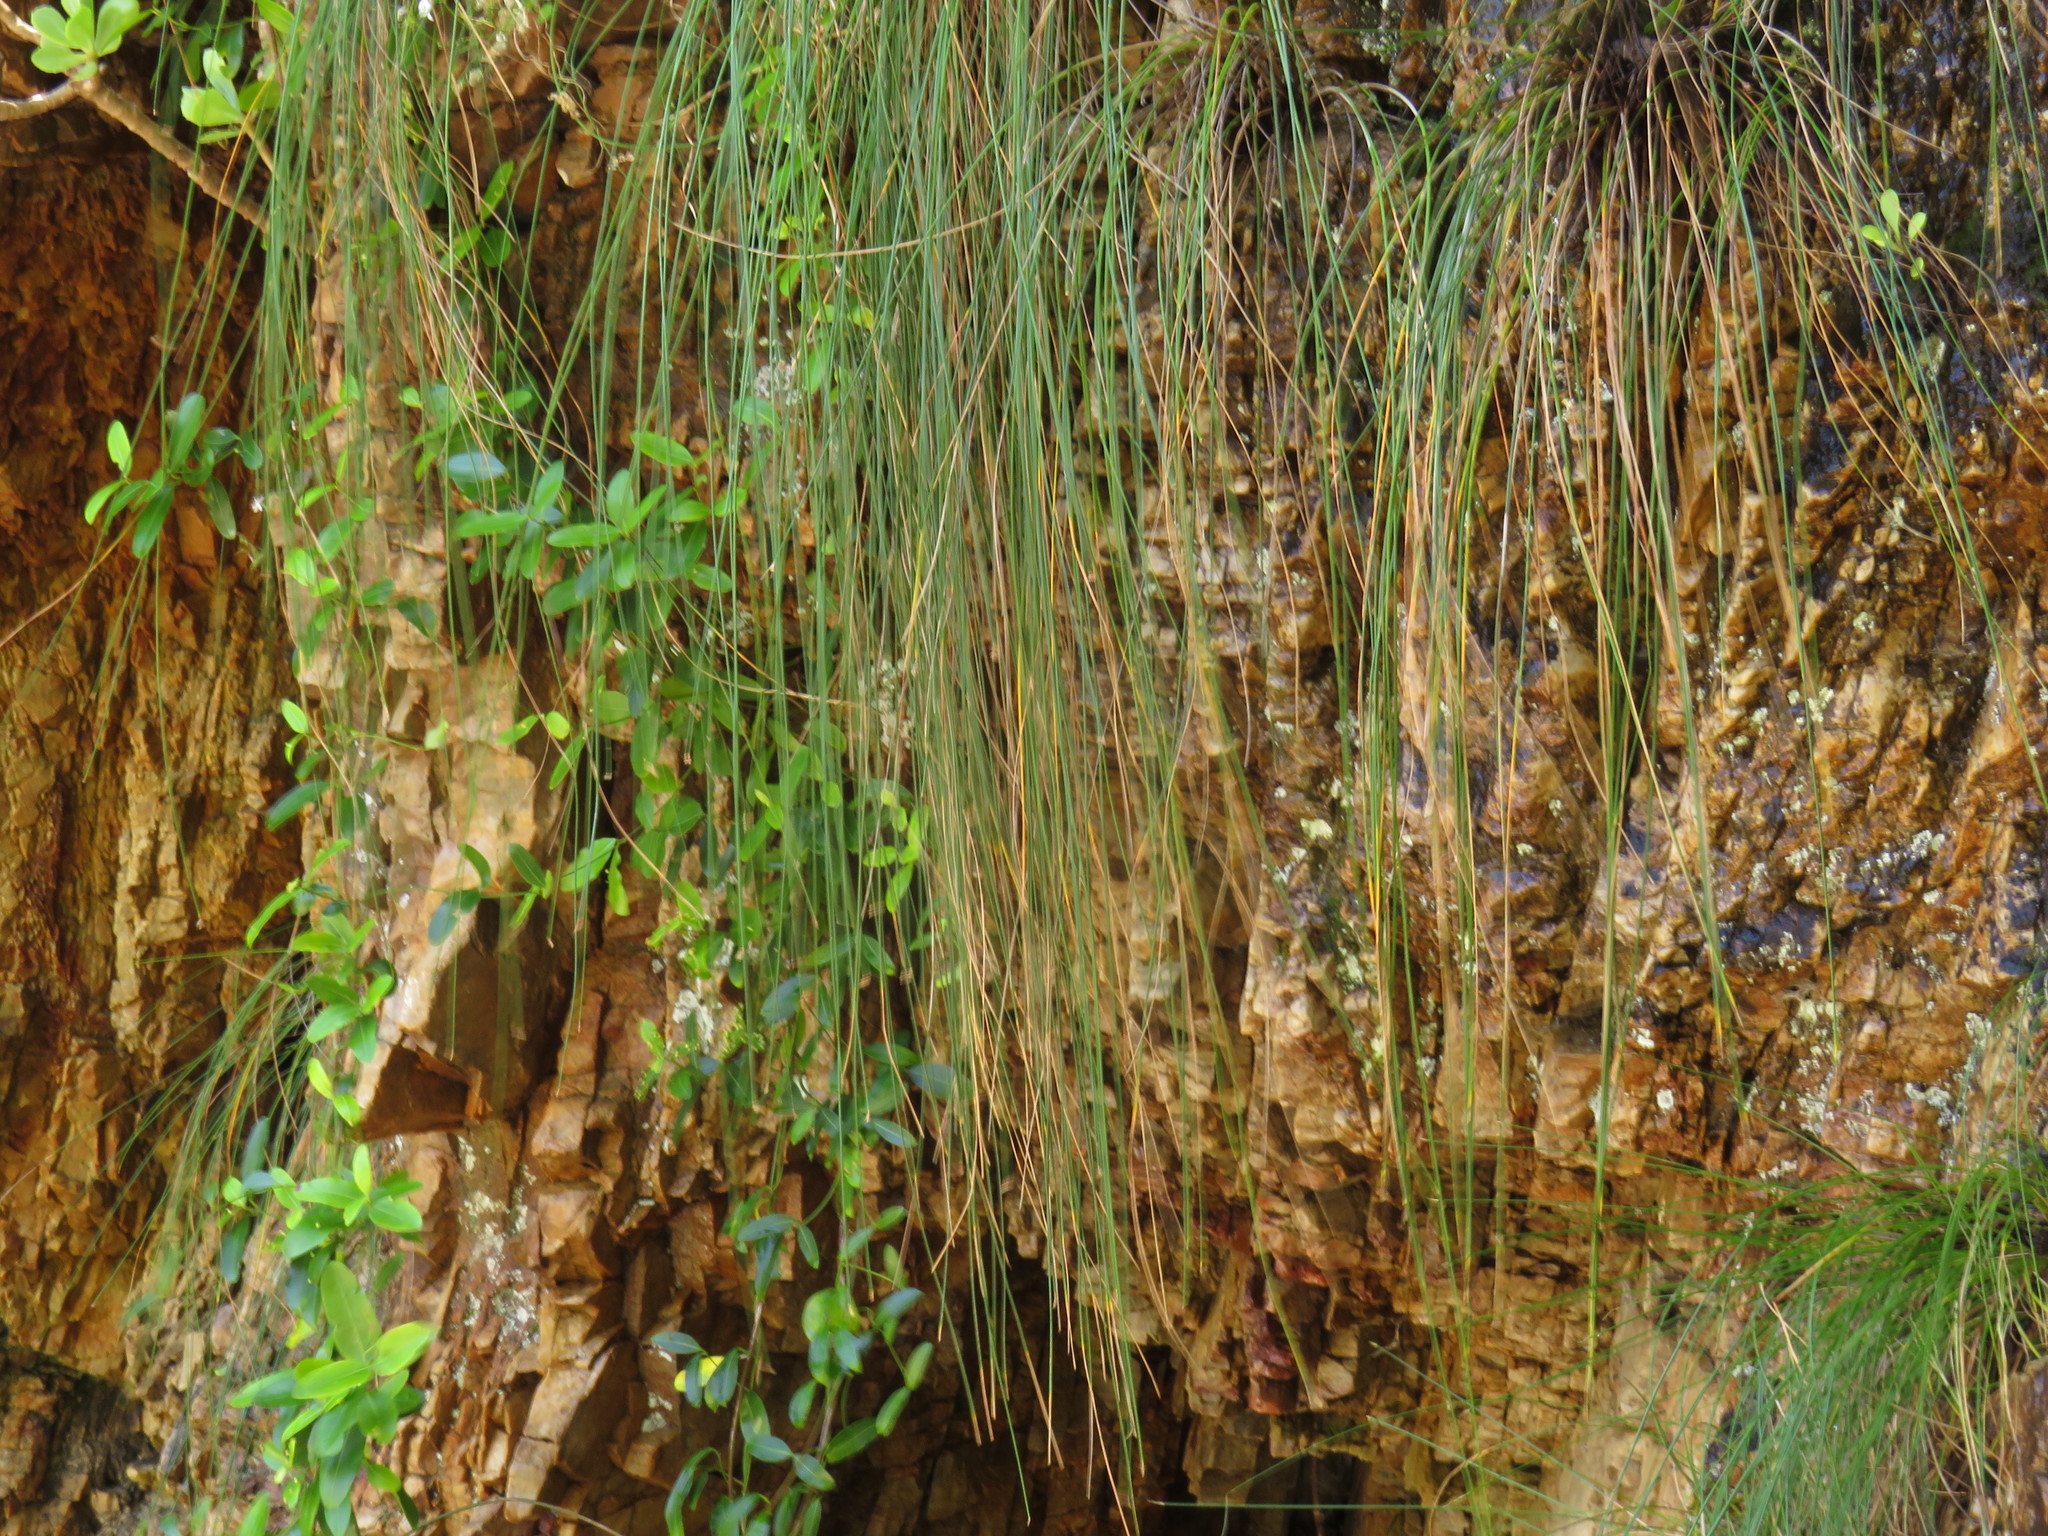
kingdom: Plantae
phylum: Tracheophyta
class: Magnoliopsida
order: Gentianales
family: Apocynaceae
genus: Secamone
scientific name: Secamone alpini
